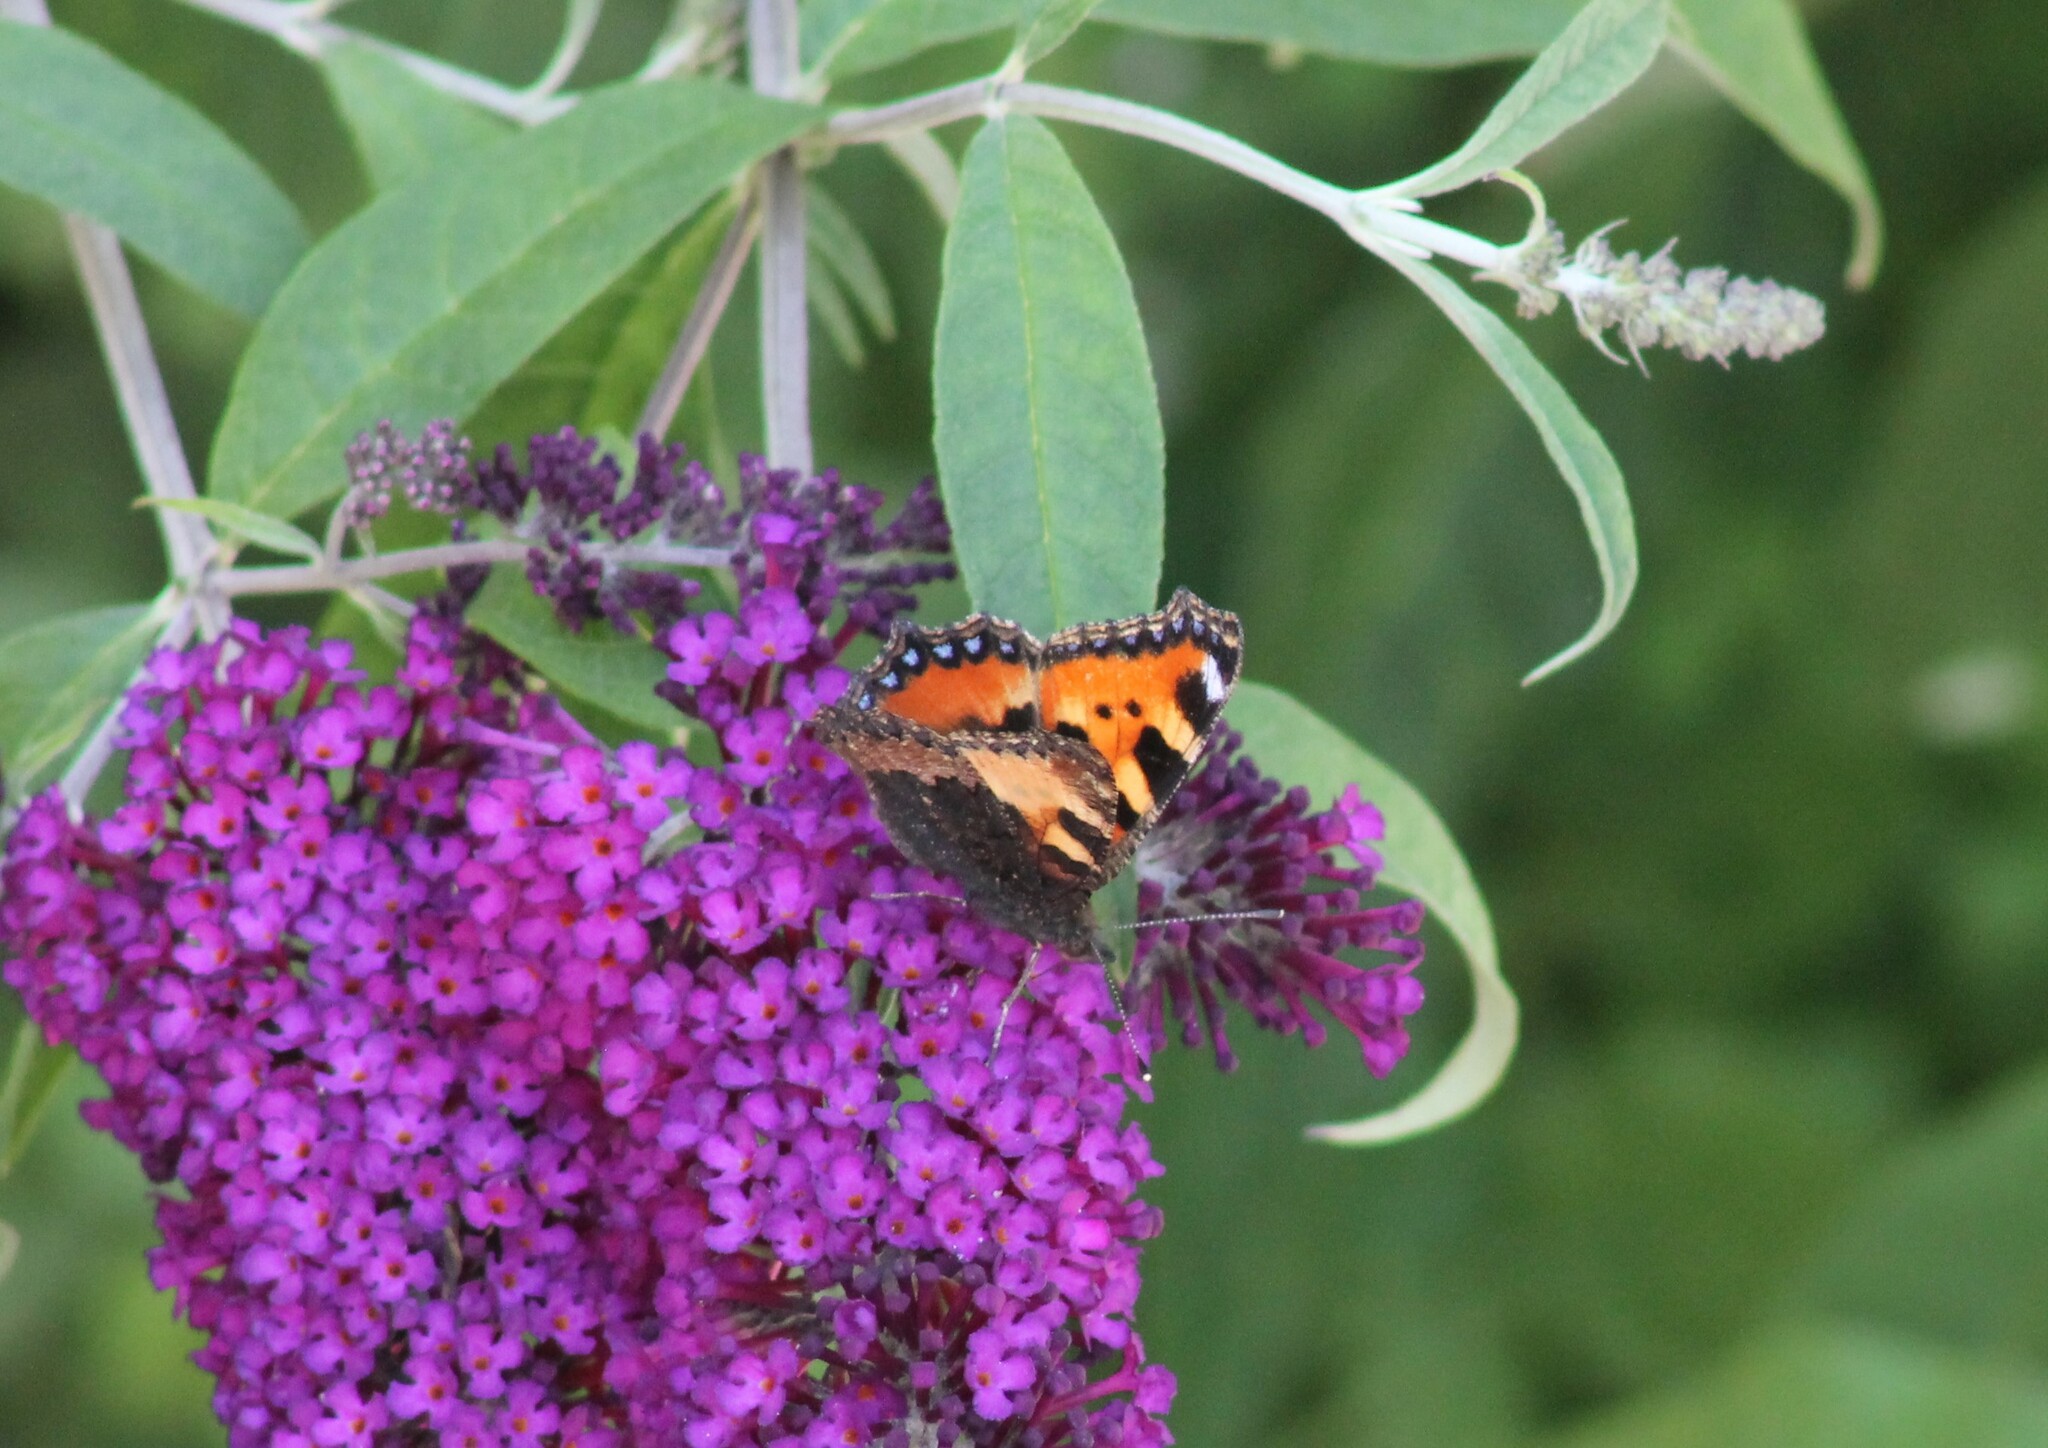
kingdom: Animalia
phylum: Arthropoda
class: Insecta
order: Lepidoptera
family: Nymphalidae
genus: Aglais
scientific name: Aglais urticae
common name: Small tortoiseshell
